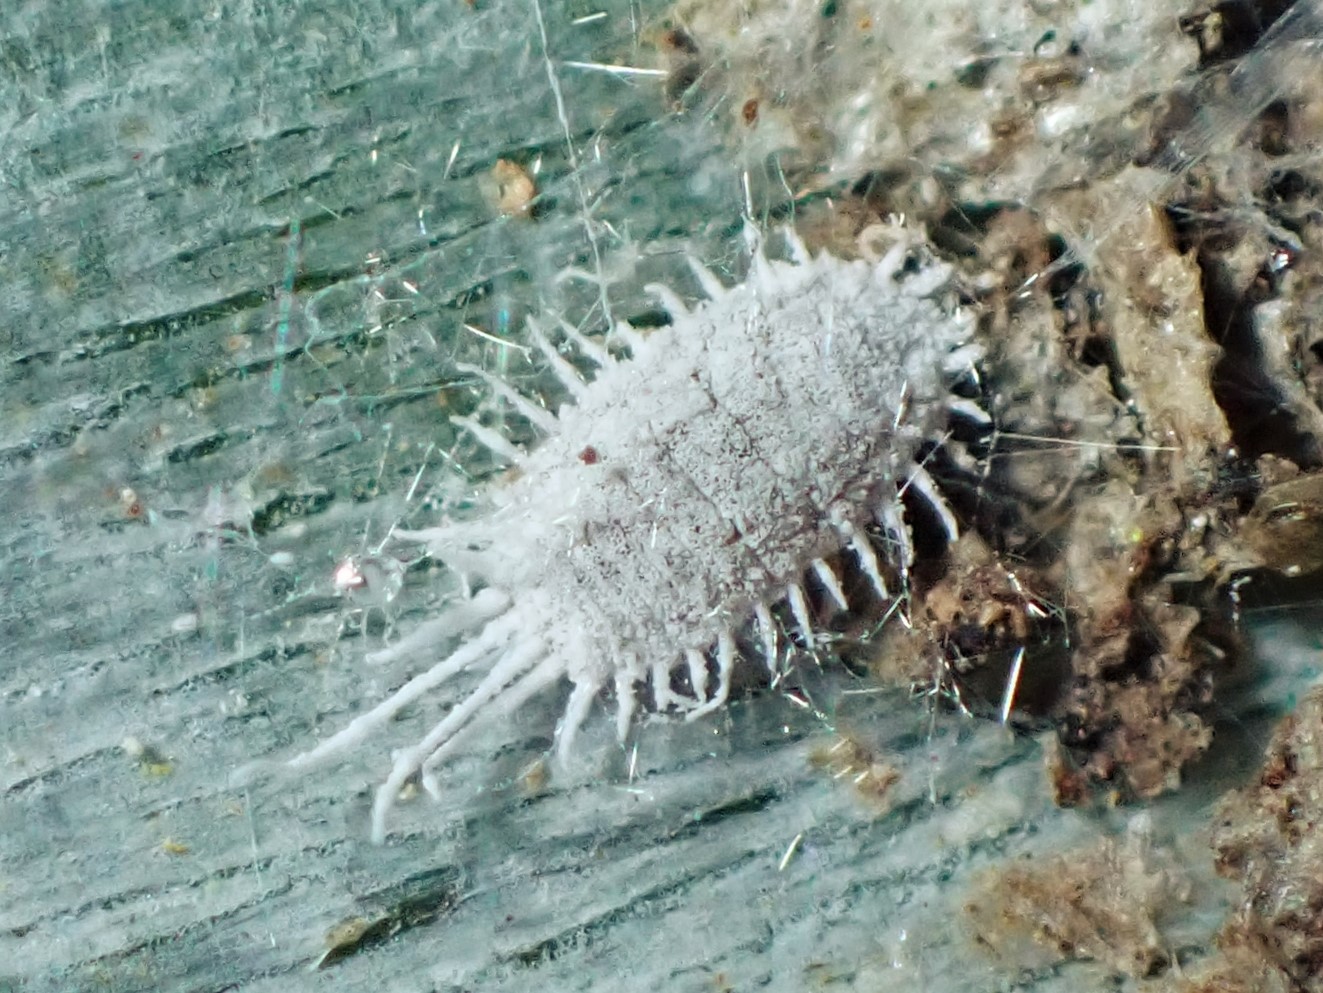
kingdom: Animalia
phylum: Arthropoda
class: Insecta
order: Hemiptera
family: Pseudococcidae
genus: Pseudococcus
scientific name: Pseudococcus longispinus
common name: Long-tailed mealybug
